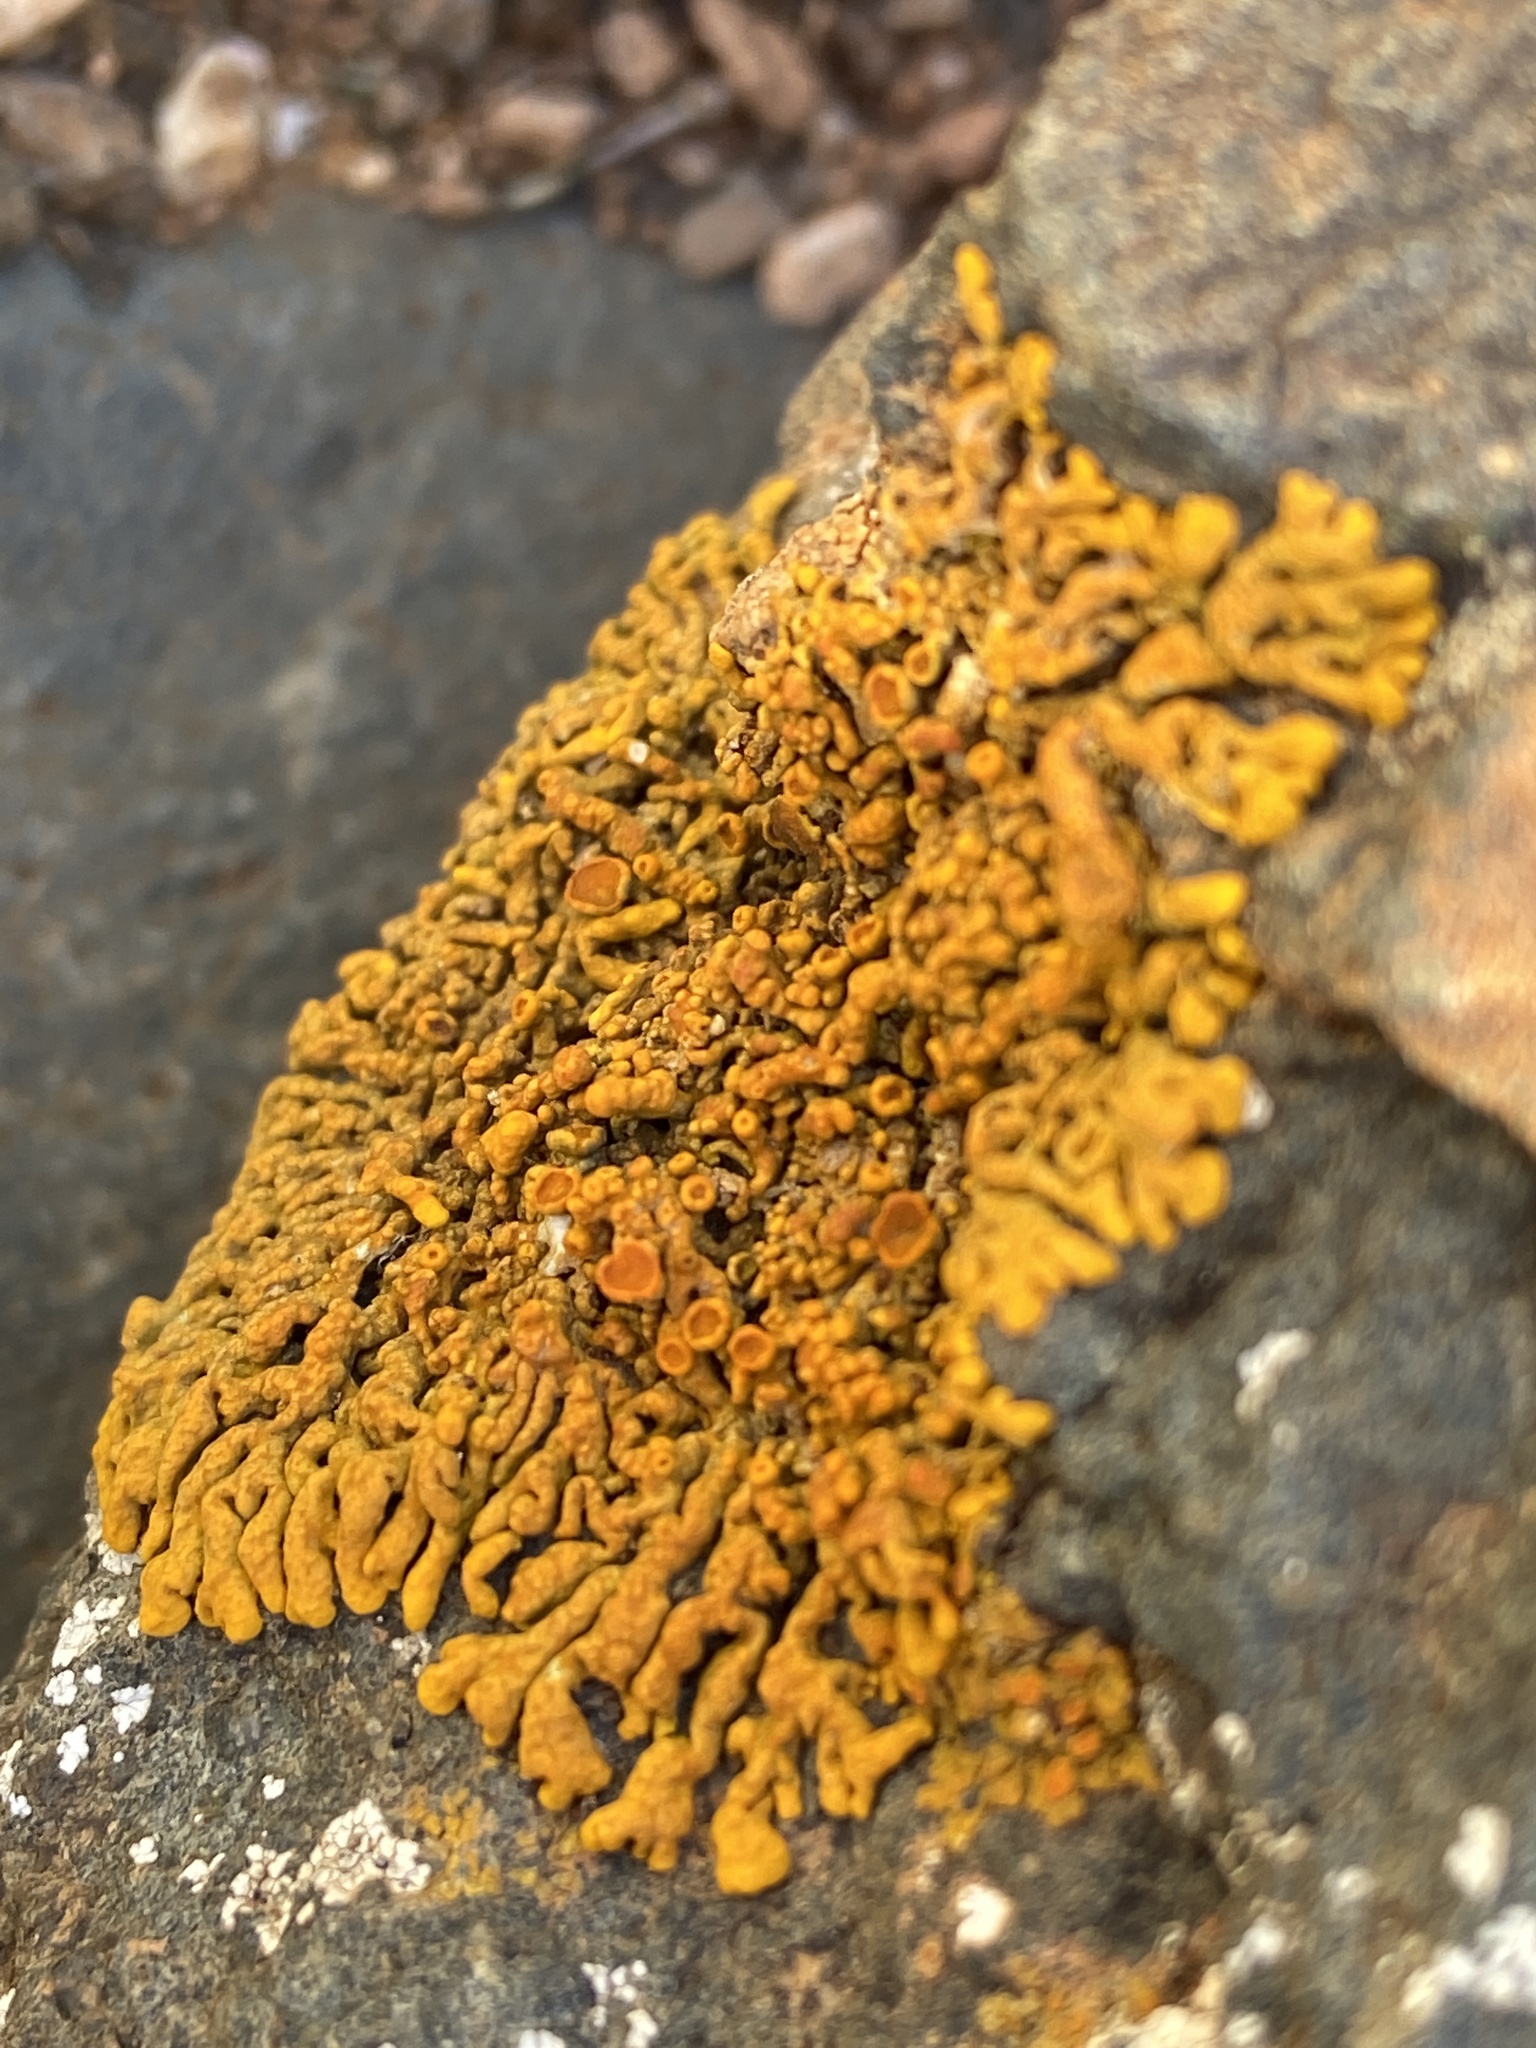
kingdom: Fungi
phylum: Ascomycota
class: Lecanoromycetes
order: Teloschistales
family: Teloschistaceae
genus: Xanthoria
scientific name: Xanthoria elegans
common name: Elegant sunburst lichen
